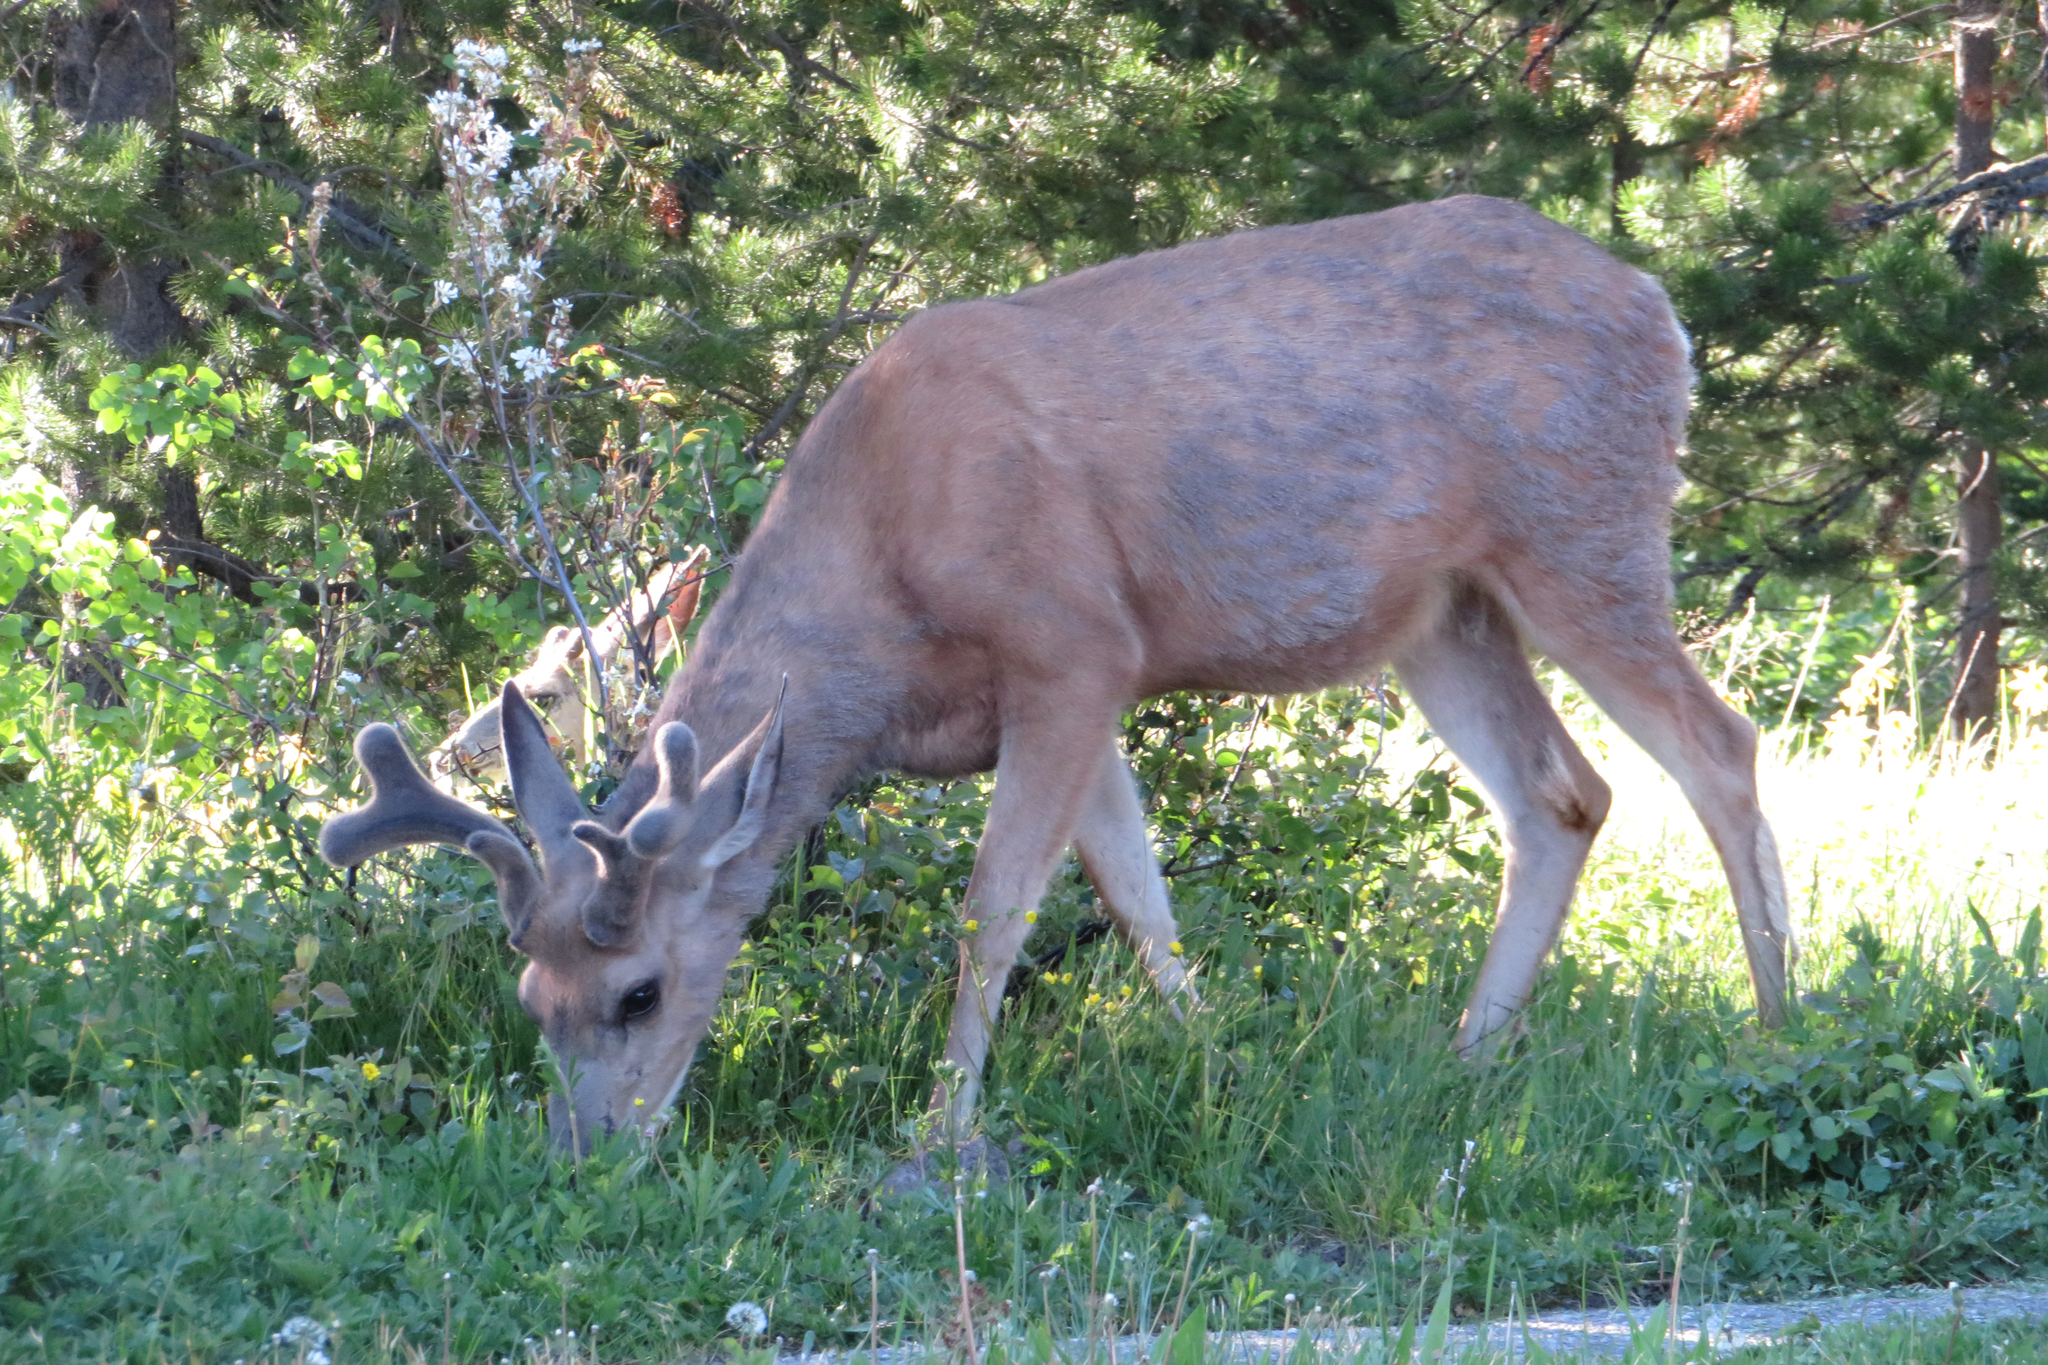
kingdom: Animalia
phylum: Chordata
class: Mammalia
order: Artiodactyla
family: Cervidae
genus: Odocoileus
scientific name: Odocoileus hemionus
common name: Mule deer
